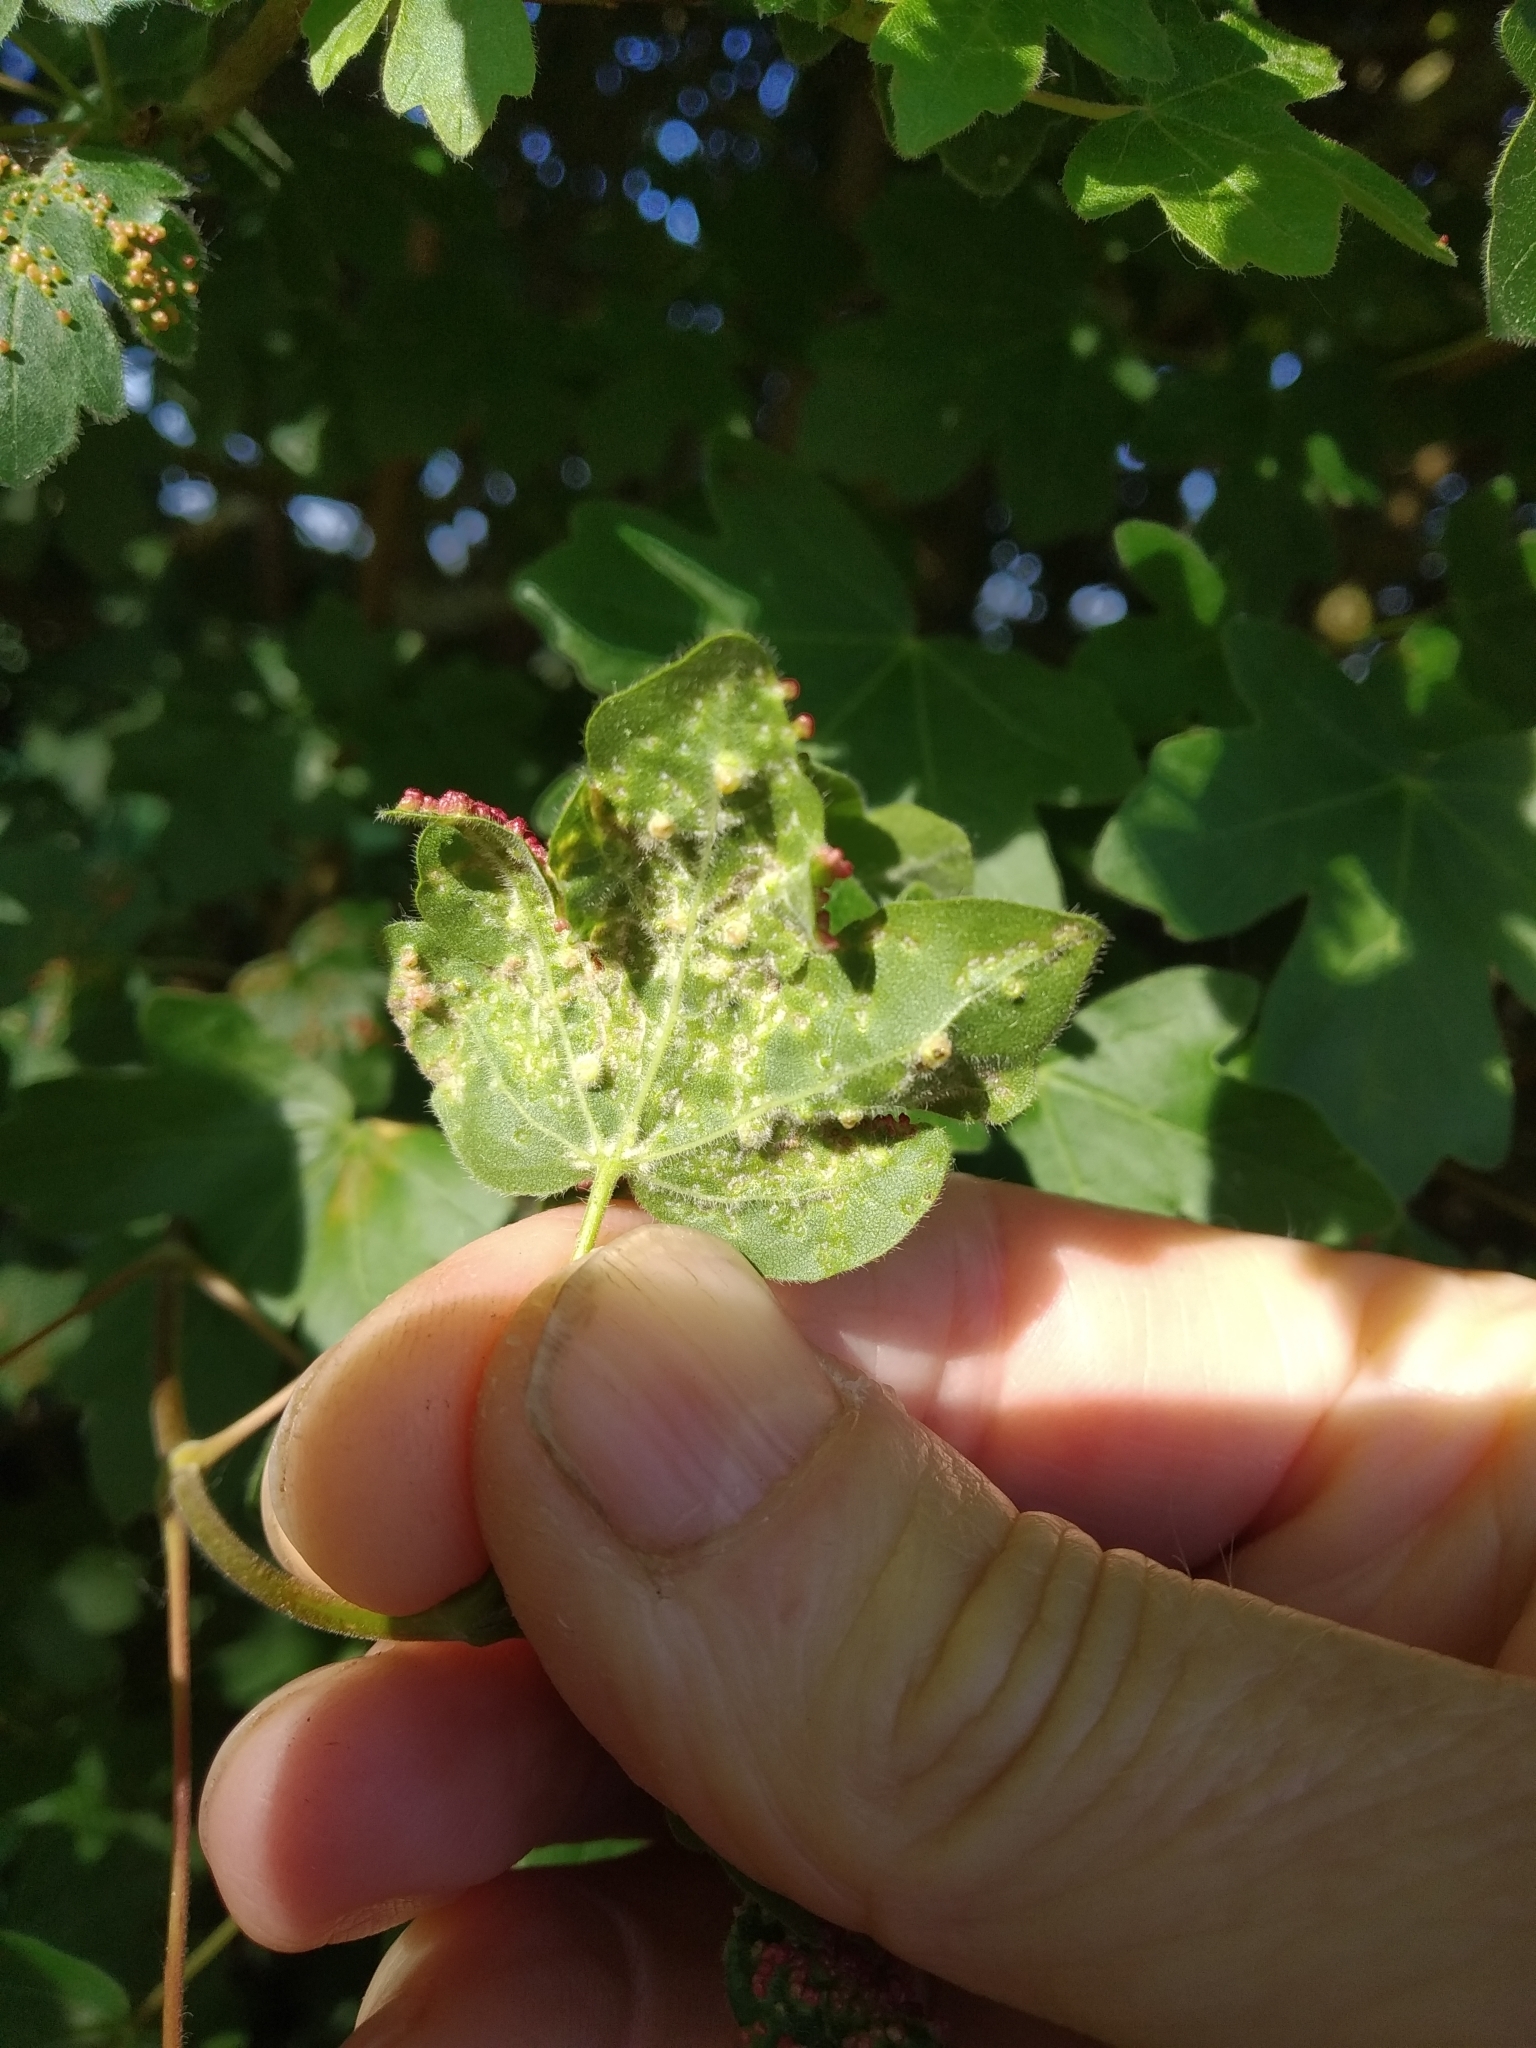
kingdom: Animalia
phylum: Arthropoda
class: Arachnida
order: Trombidiformes
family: Eriophyidae
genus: Aceria
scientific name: Aceria myriadeum
